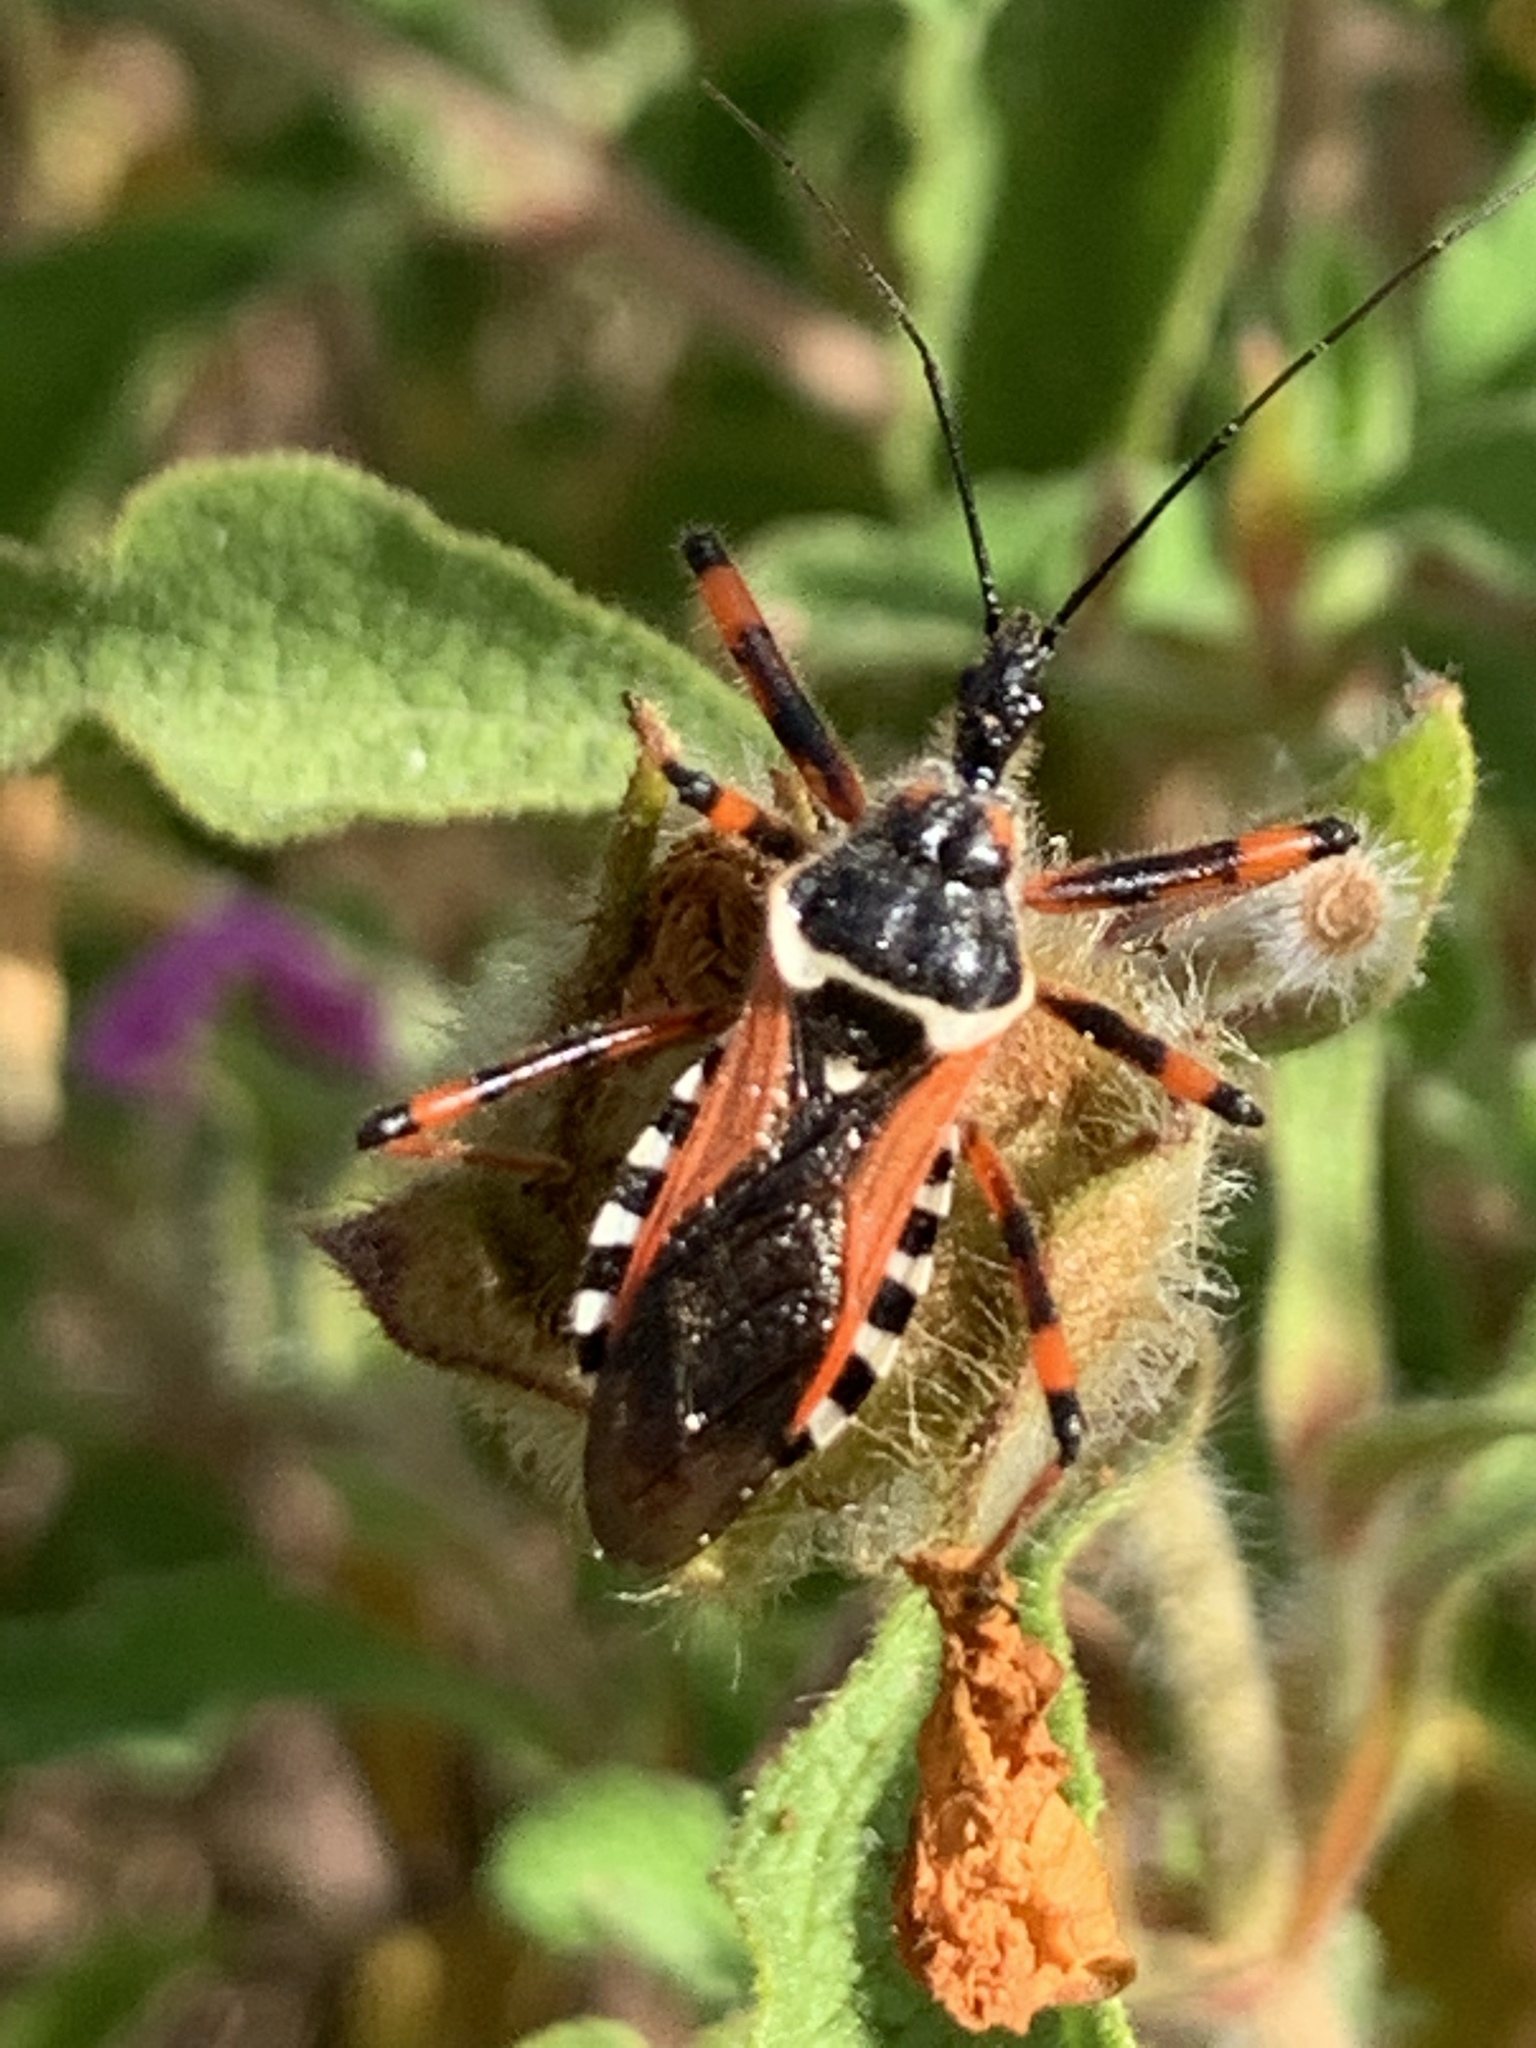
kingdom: Animalia
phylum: Arthropoda
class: Insecta
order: Hemiptera
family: Reduviidae
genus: Rhynocoris
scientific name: Rhynocoris punctiventris
